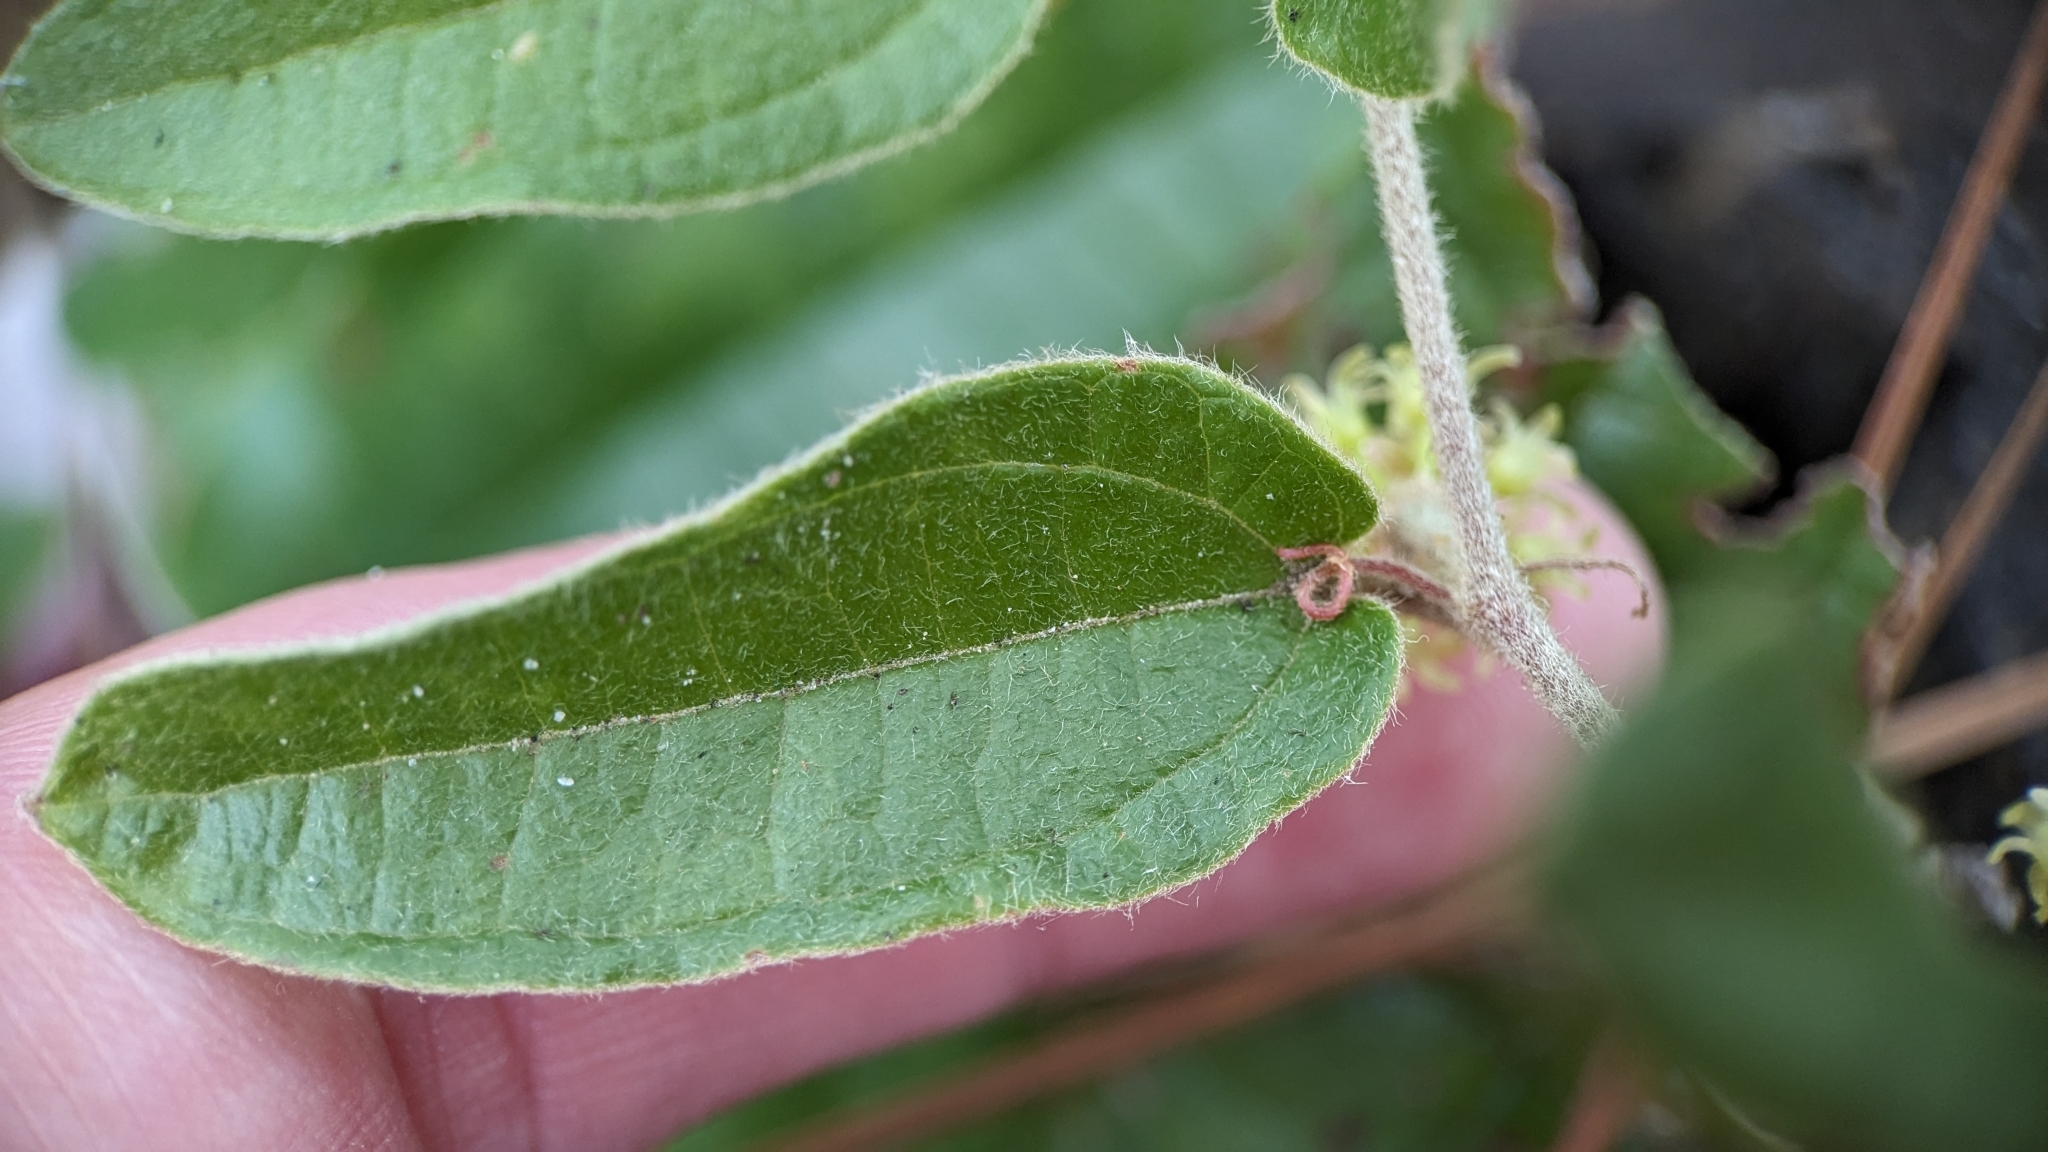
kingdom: Plantae
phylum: Tracheophyta
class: Liliopsida
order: Liliales
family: Smilacaceae
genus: Smilax
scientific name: Smilax pumila
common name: Sarsaparilla-vine
